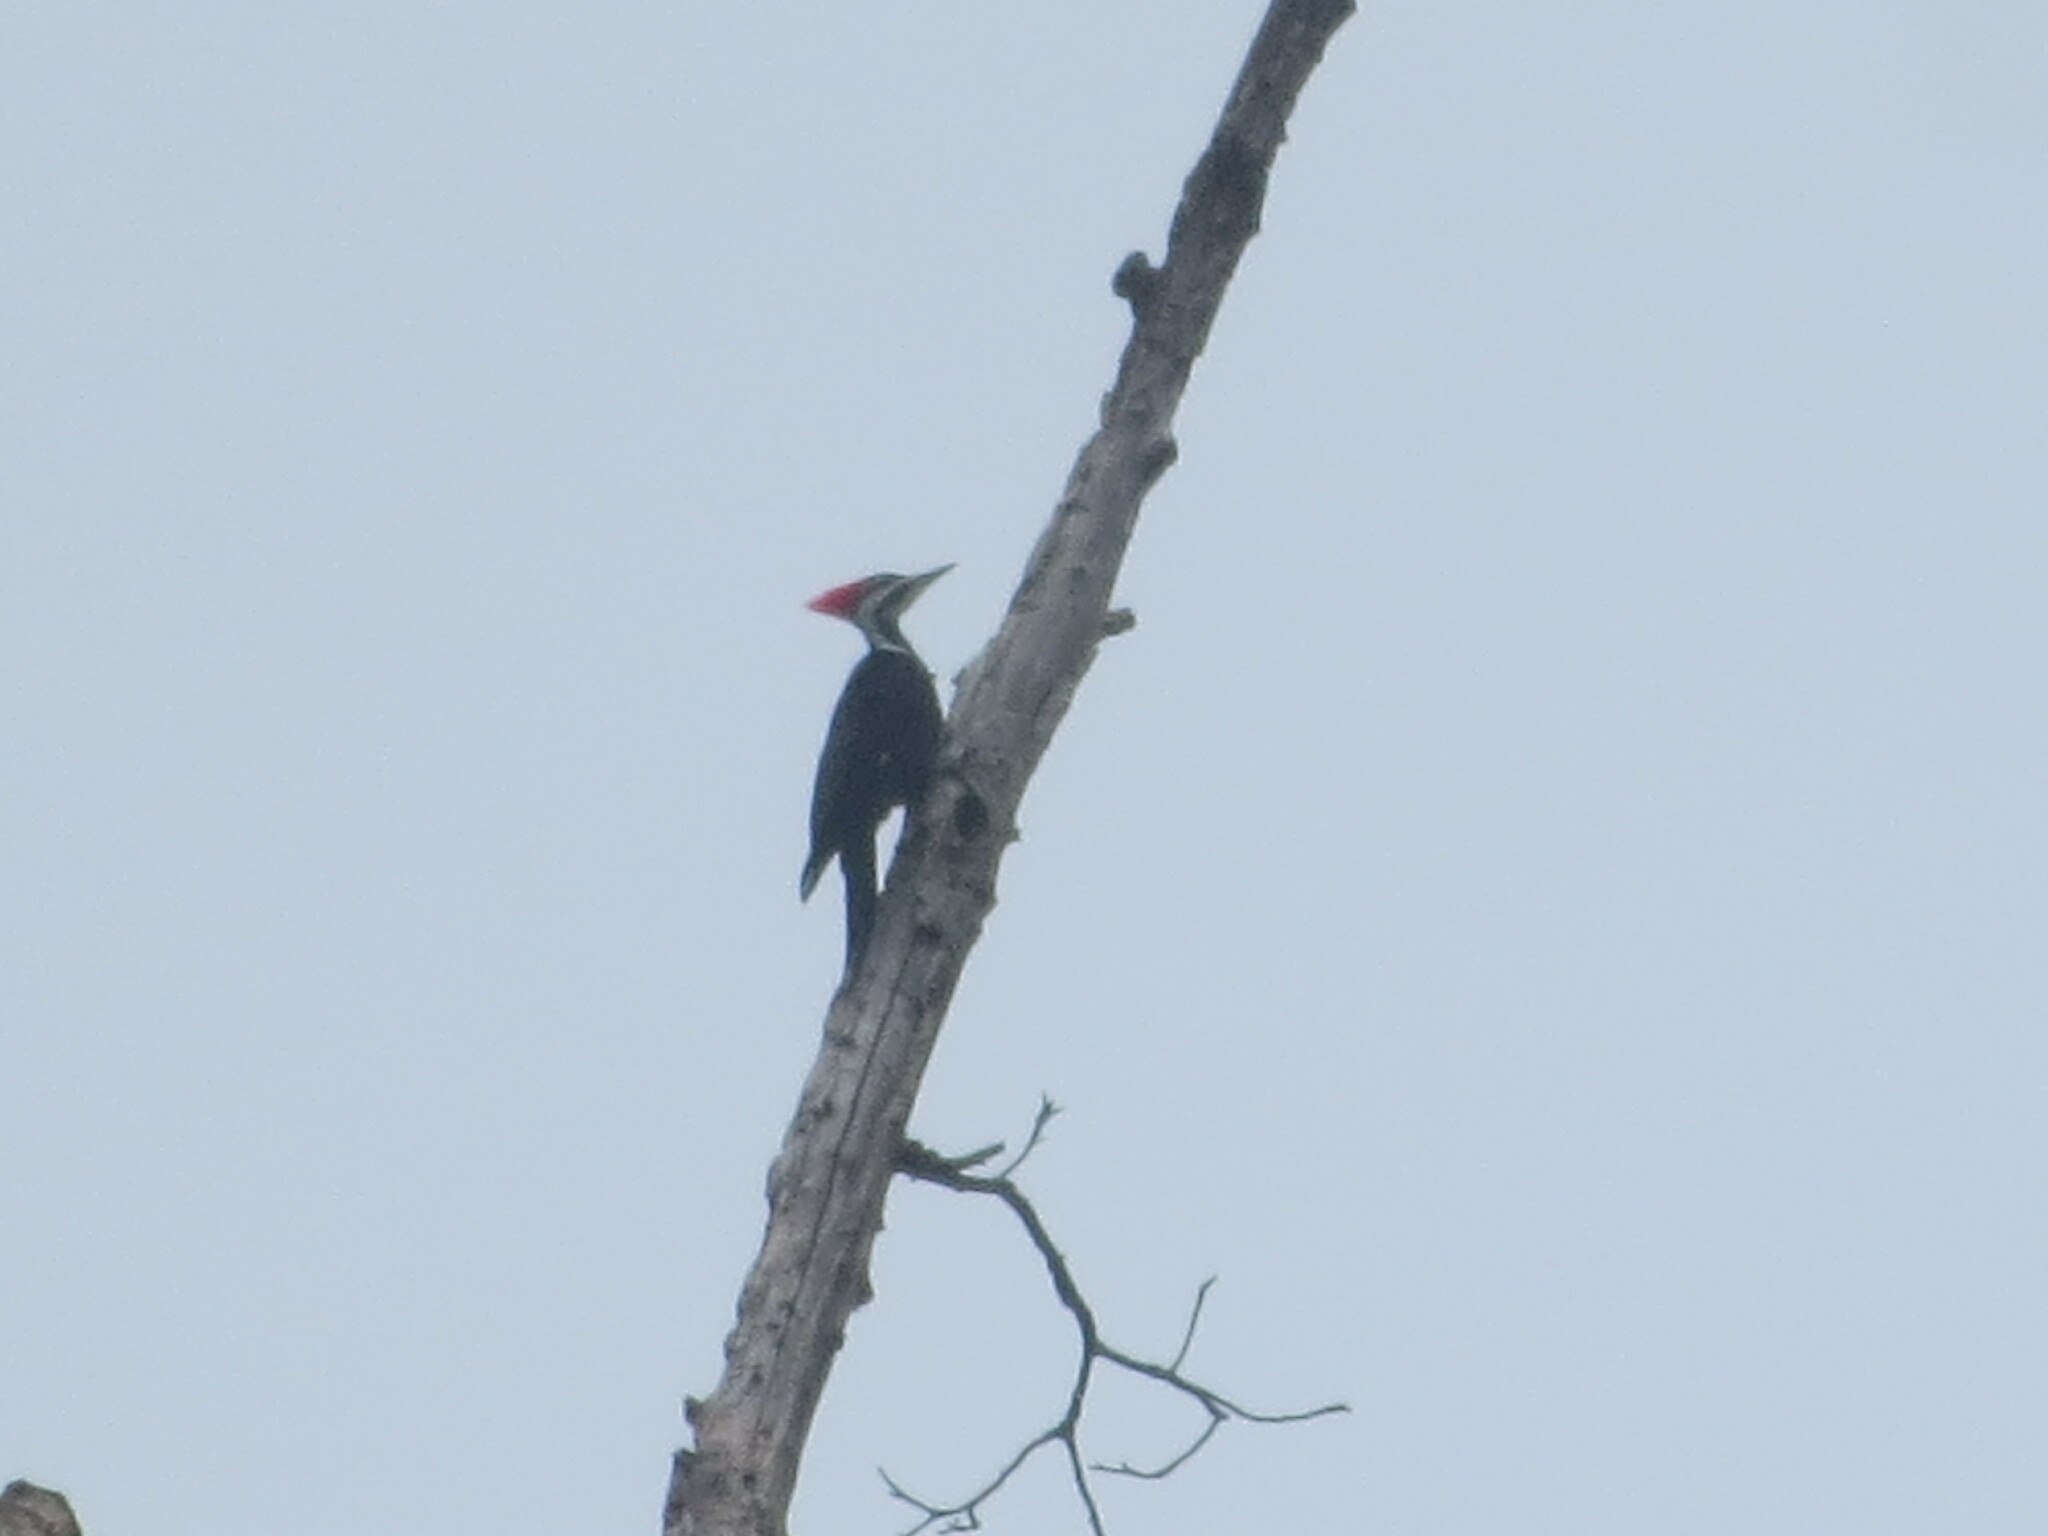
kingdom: Animalia
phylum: Chordata
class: Aves
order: Piciformes
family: Picidae
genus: Dryocopus
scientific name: Dryocopus pileatus
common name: Pileated woodpecker
